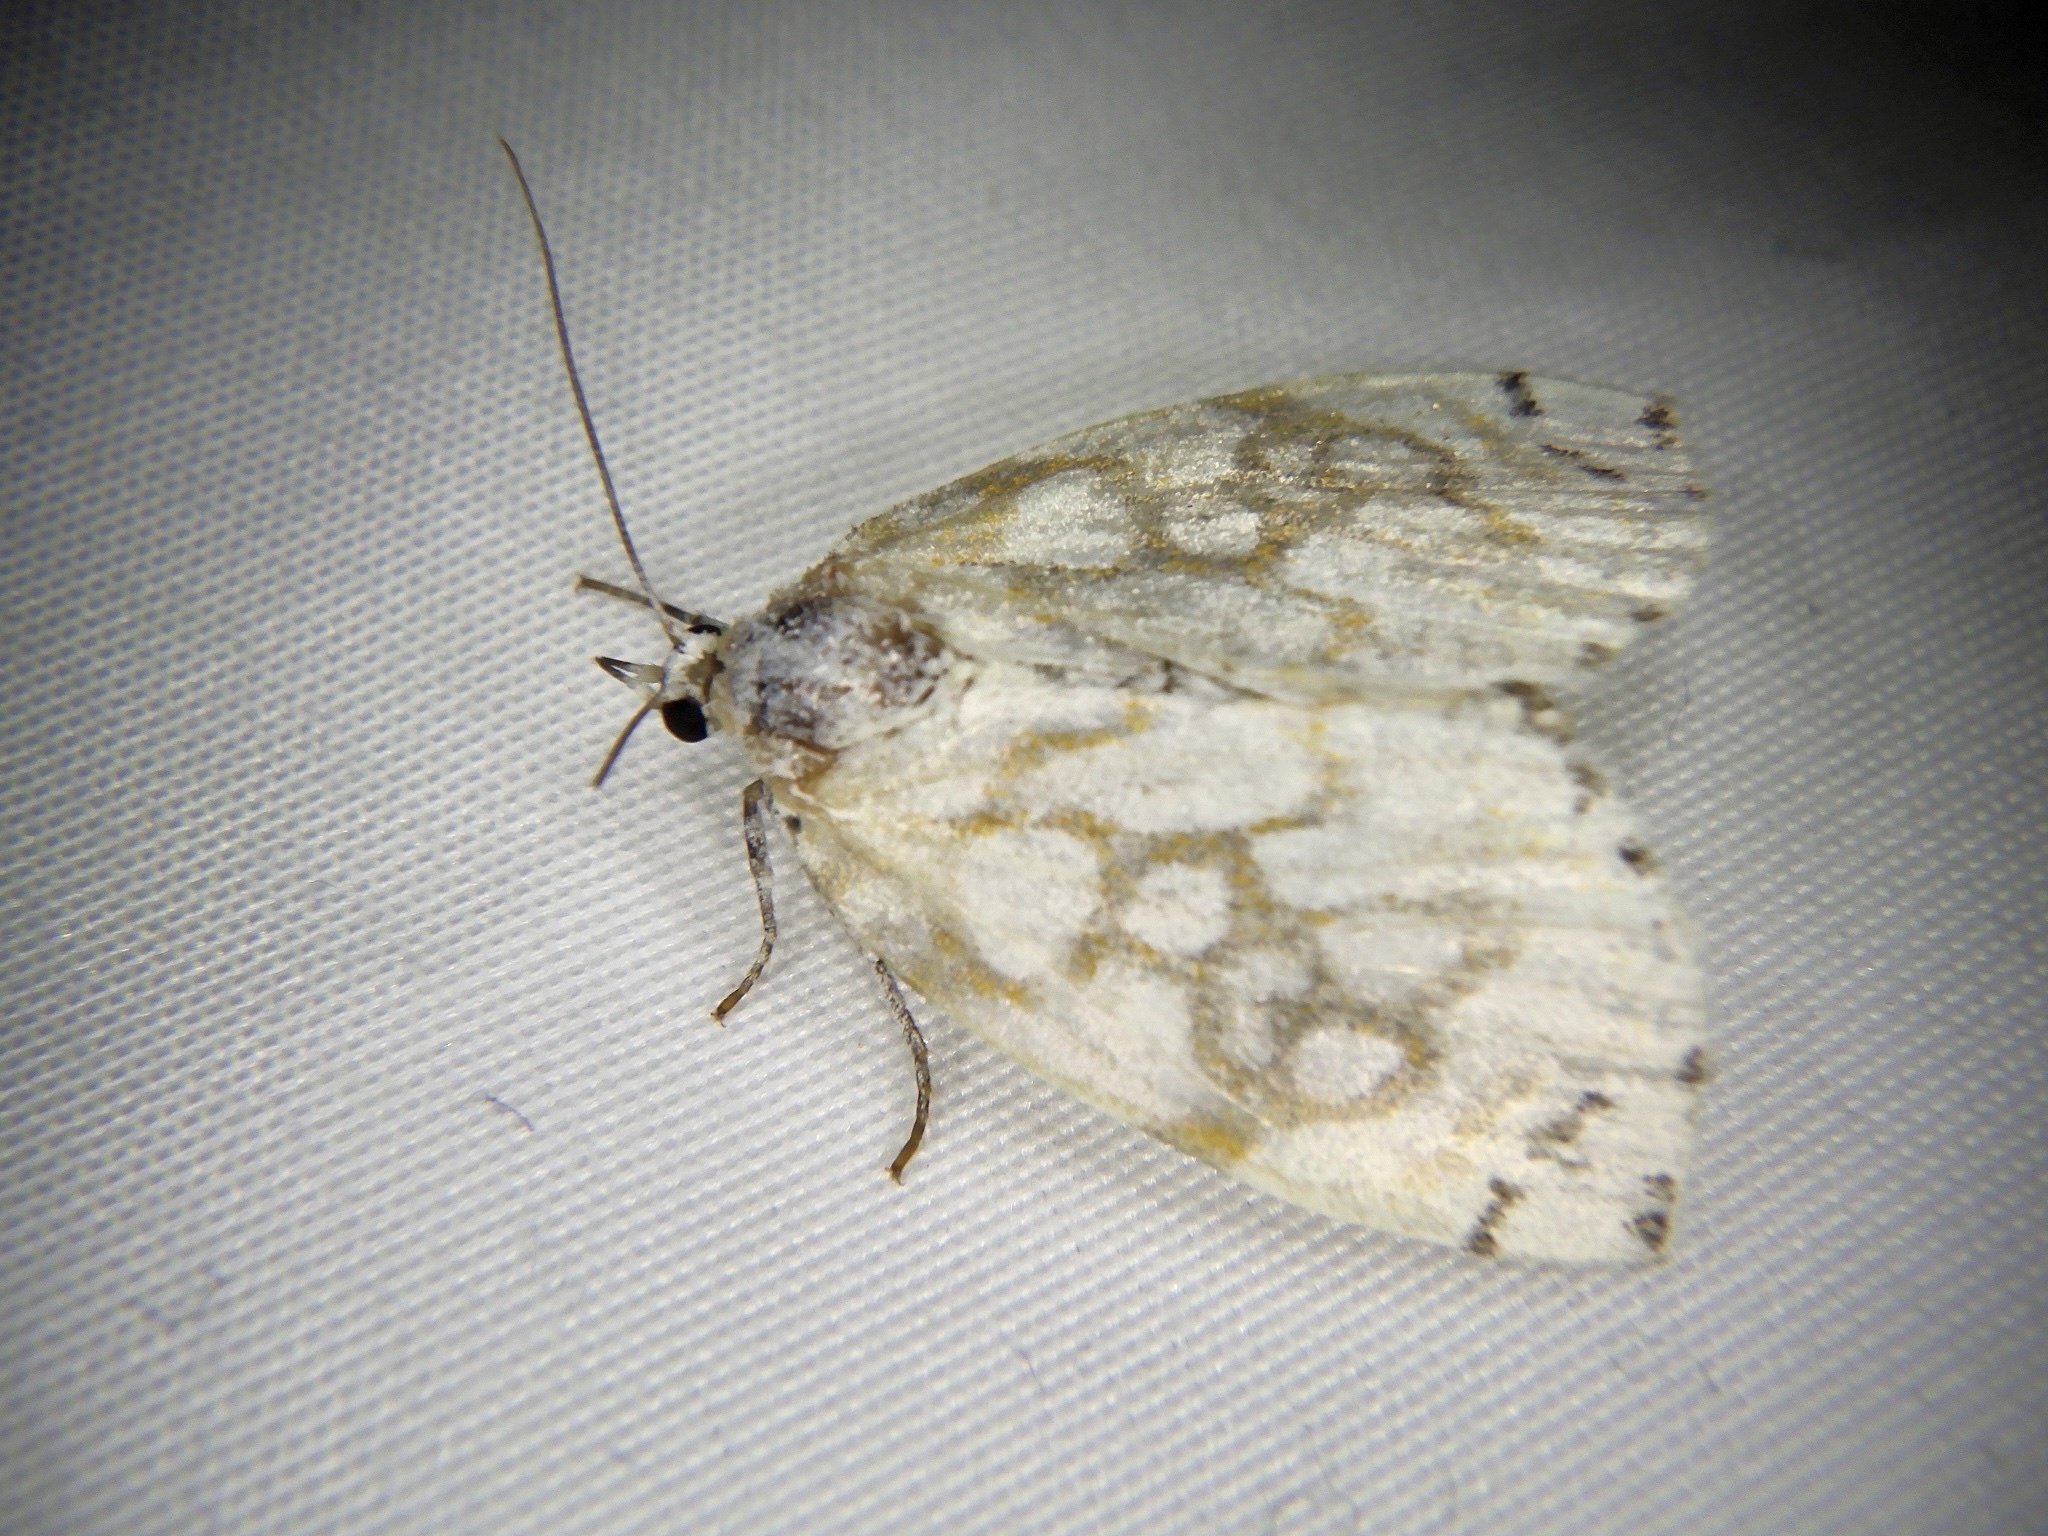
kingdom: Animalia
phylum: Arthropoda
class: Insecta
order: Lepidoptera
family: Nolidae
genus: Sinna
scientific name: Sinna extrema
